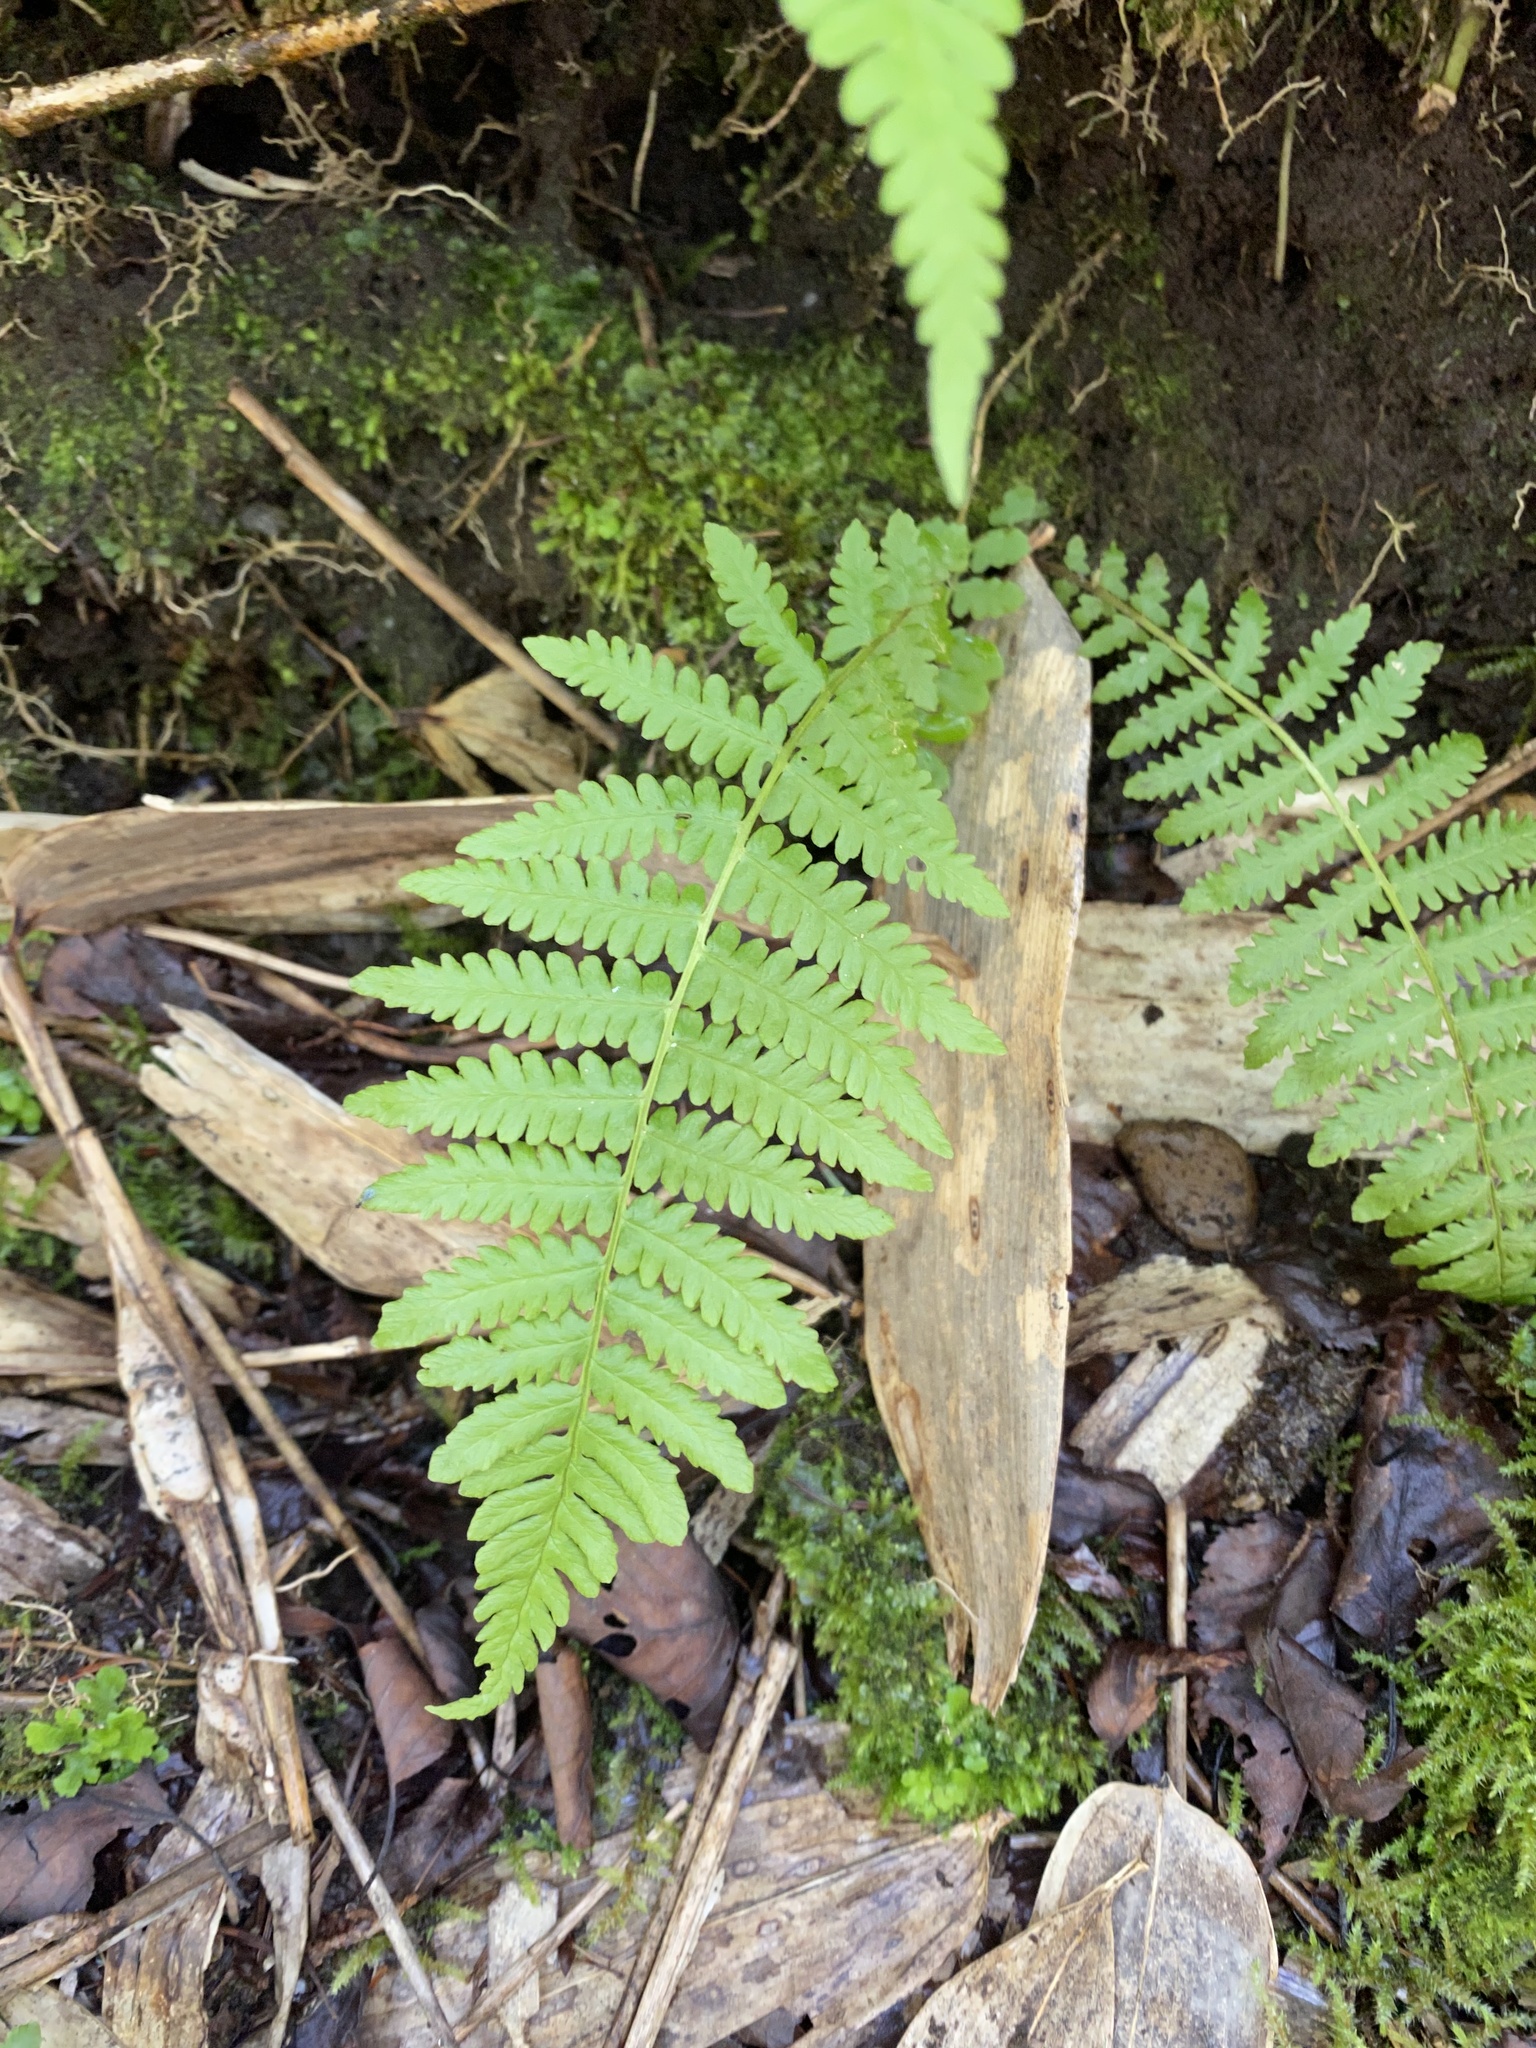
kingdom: Plantae
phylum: Tracheophyta
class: Polypodiopsida
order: Polypodiales
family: Thelypteridaceae
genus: Oreopteris
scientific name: Oreopteris quelpartensis
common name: Mountain fern
